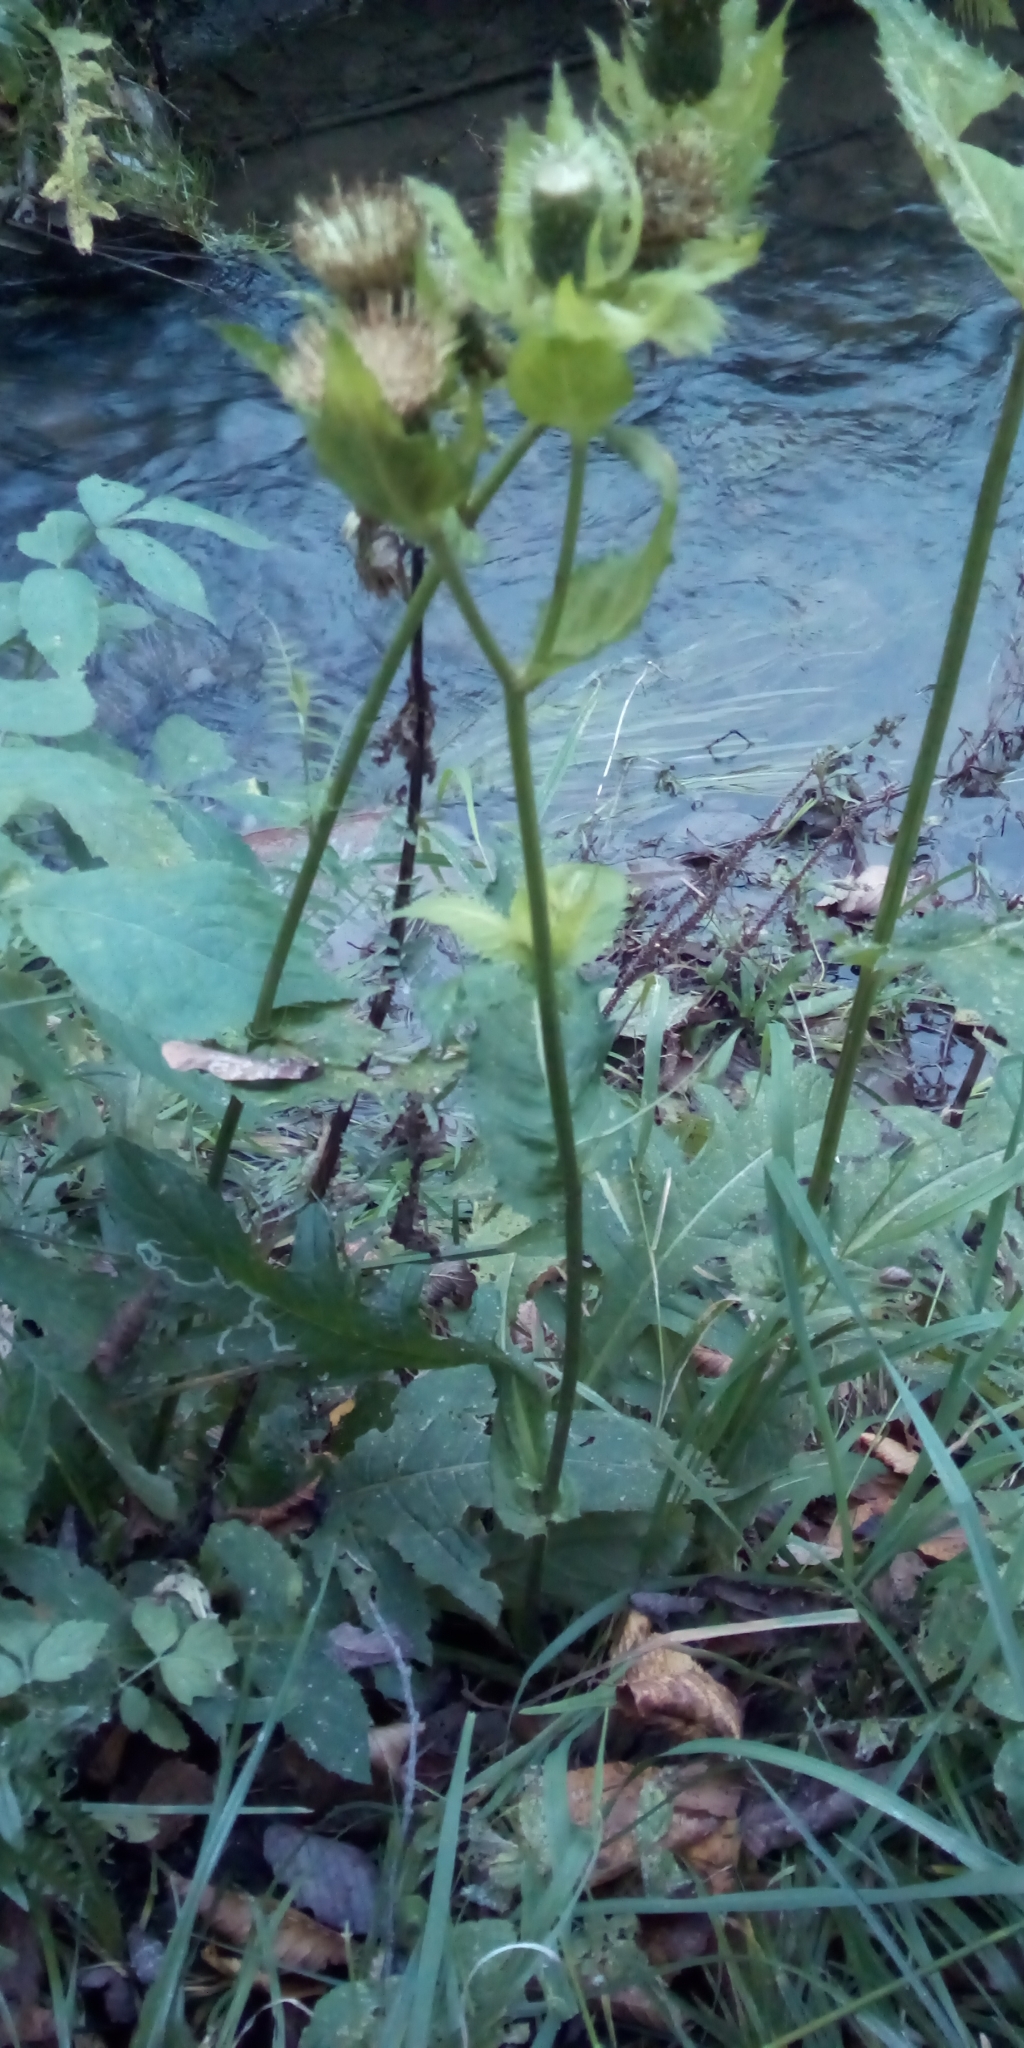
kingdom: Plantae
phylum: Tracheophyta
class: Magnoliopsida
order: Asterales
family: Asteraceae
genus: Cirsium
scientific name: Cirsium oleraceum
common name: Cabbage thistle
